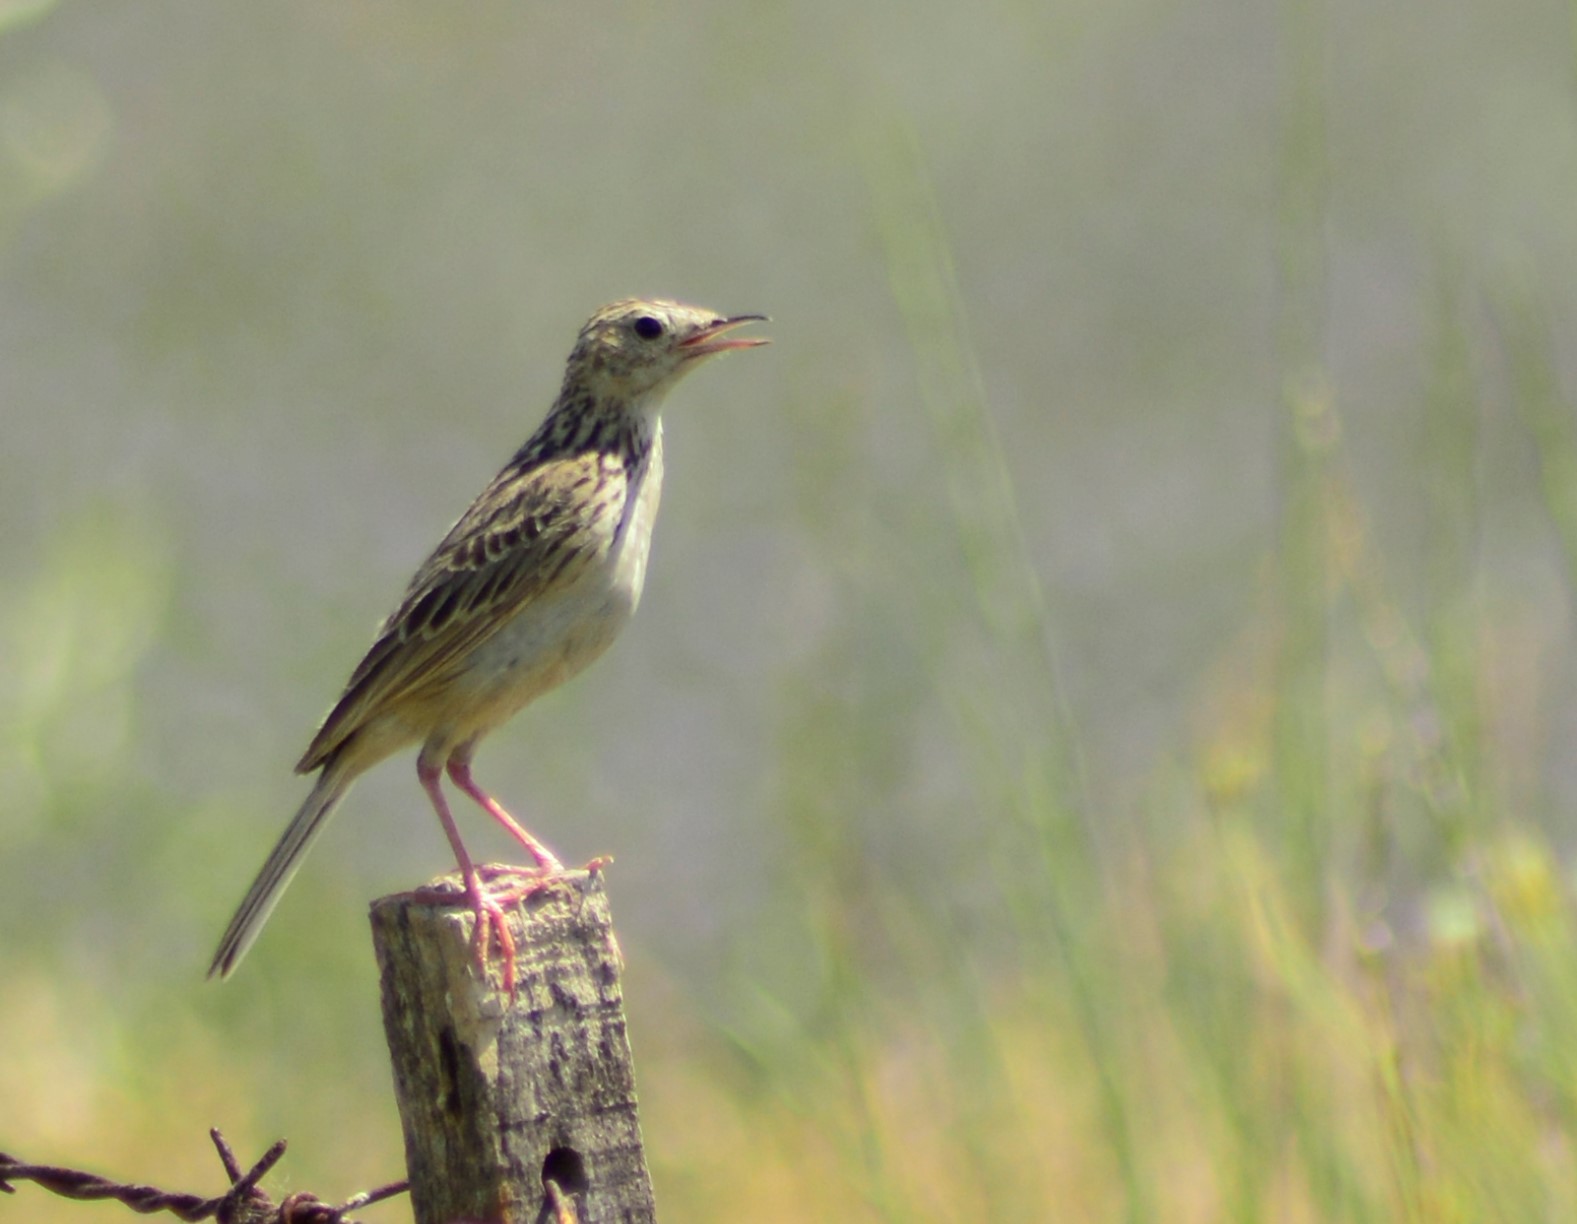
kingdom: Animalia
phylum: Chordata
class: Aves
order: Passeriformes
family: Motacillidae
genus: Anthus
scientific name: Anthus hellmayri
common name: Hellmayr's pipit
